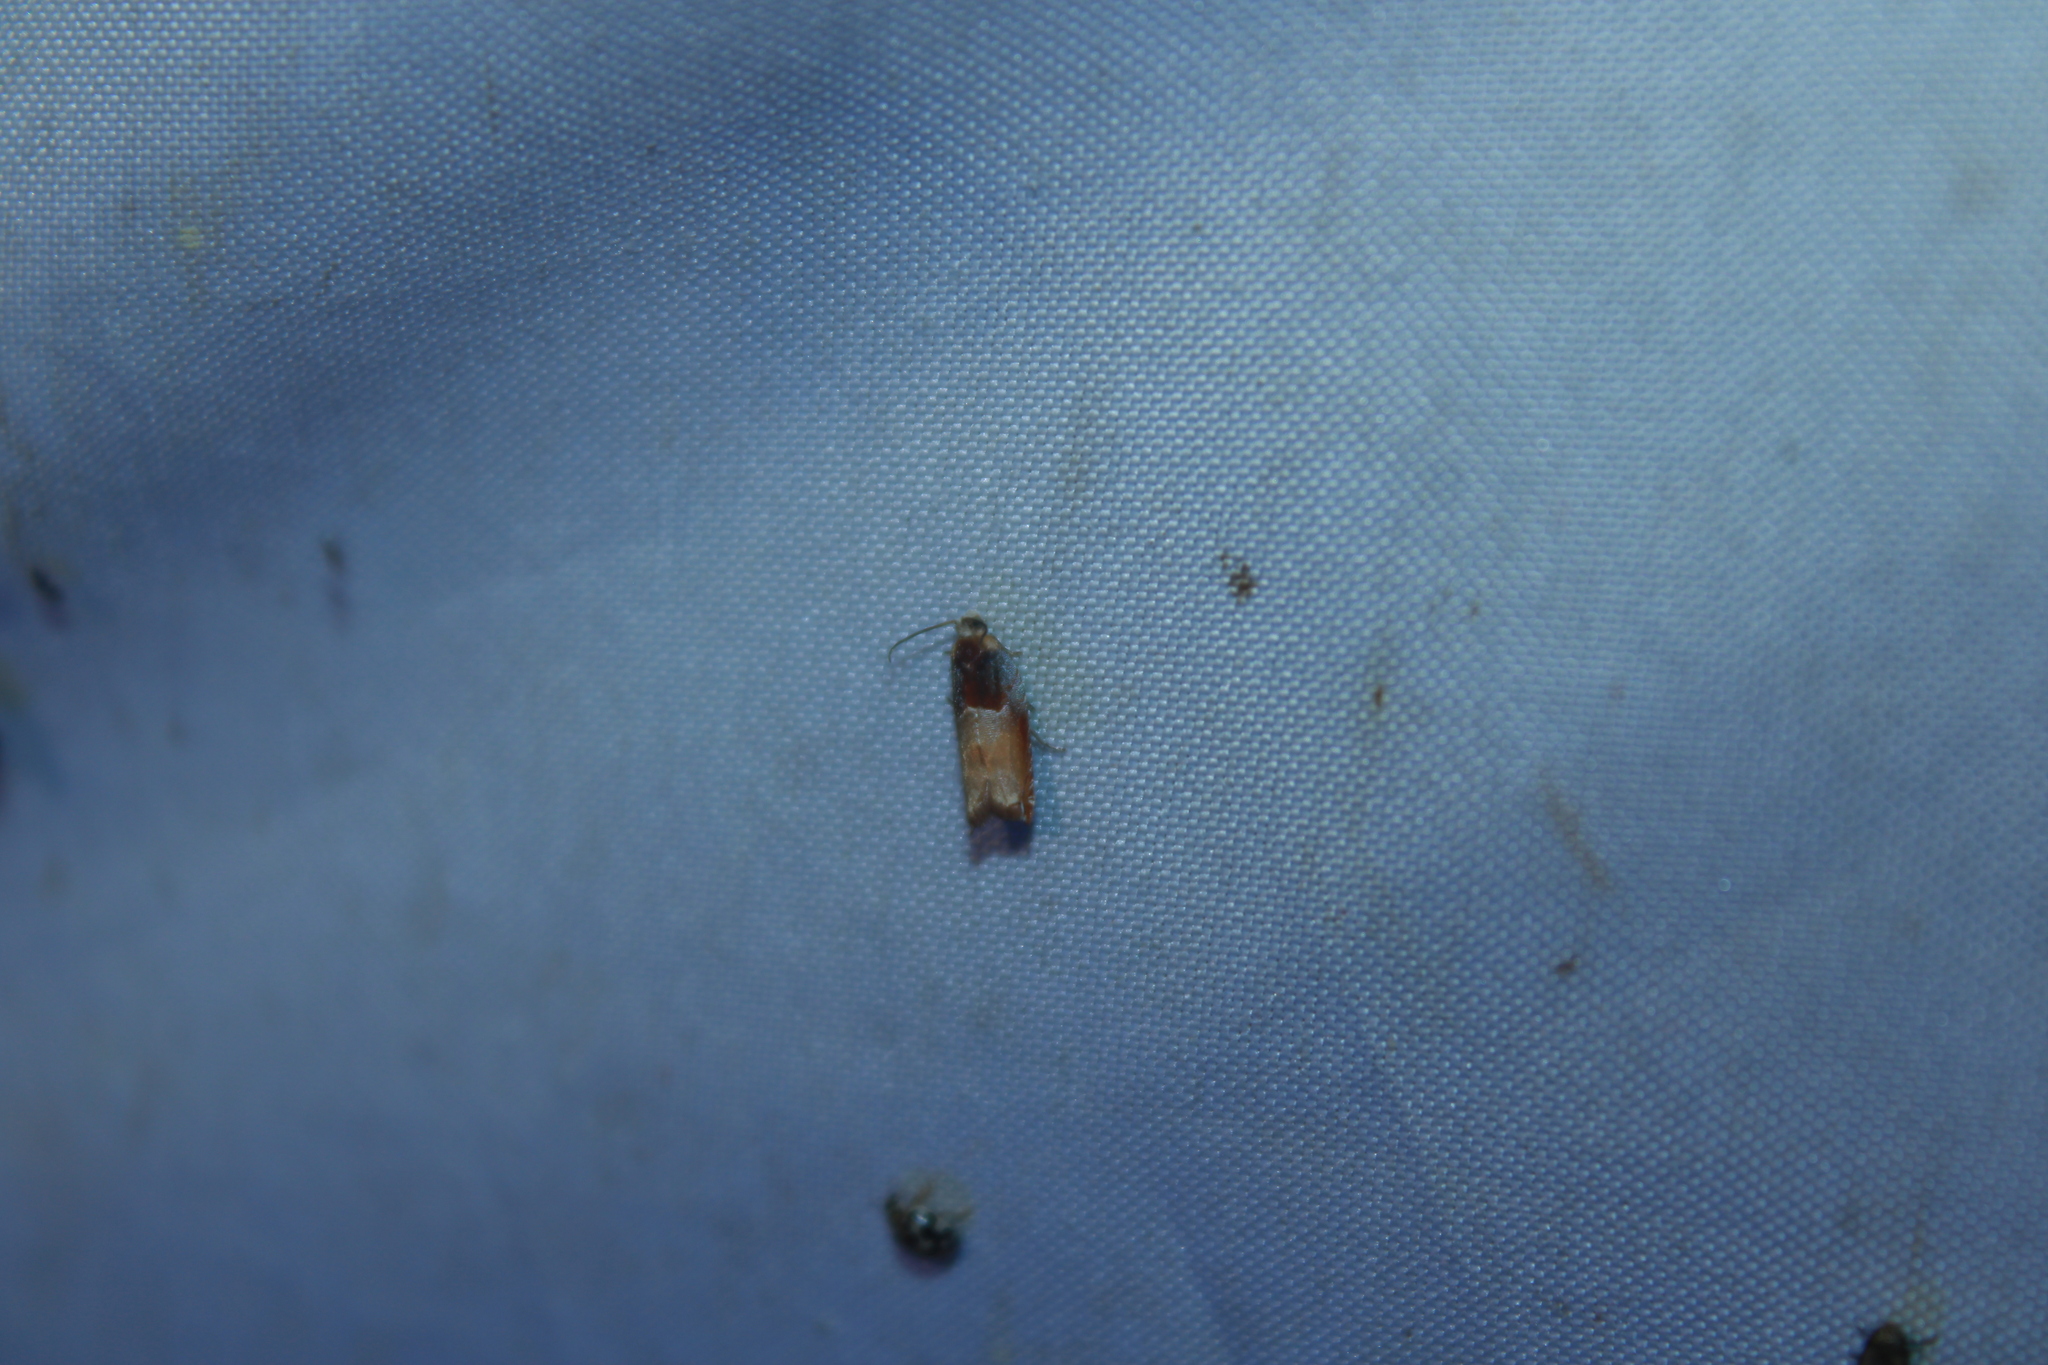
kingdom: Animalia
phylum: Arthropoda
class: Insecta
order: Lepidoptera
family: Tortricidae
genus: Ancylis
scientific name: Ancylis divisana
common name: Two-toned ancylis moth
